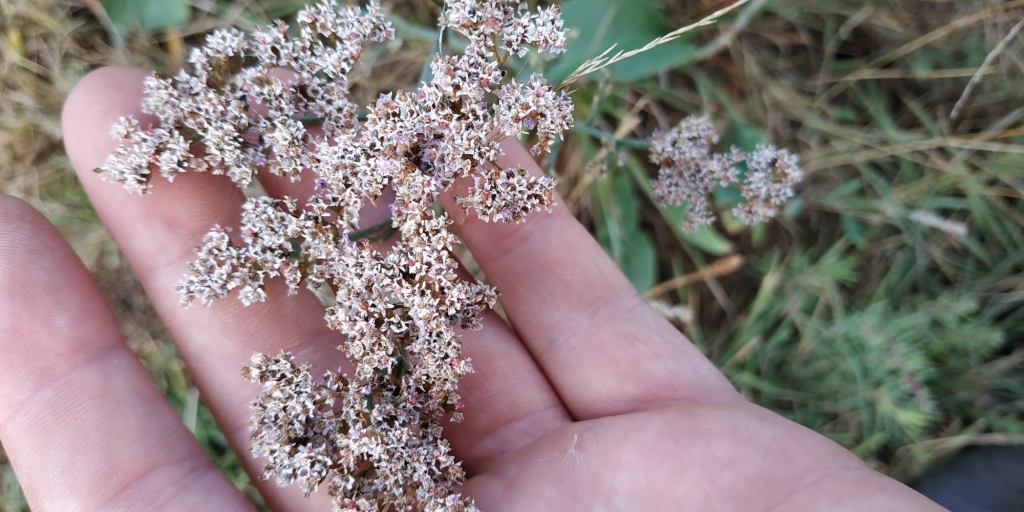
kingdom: Plantae
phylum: Tracheophyta
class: Magnoliopsida
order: Caryophyllales
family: Plumbaginaceae
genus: Limonium
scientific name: Limonium gmelini
